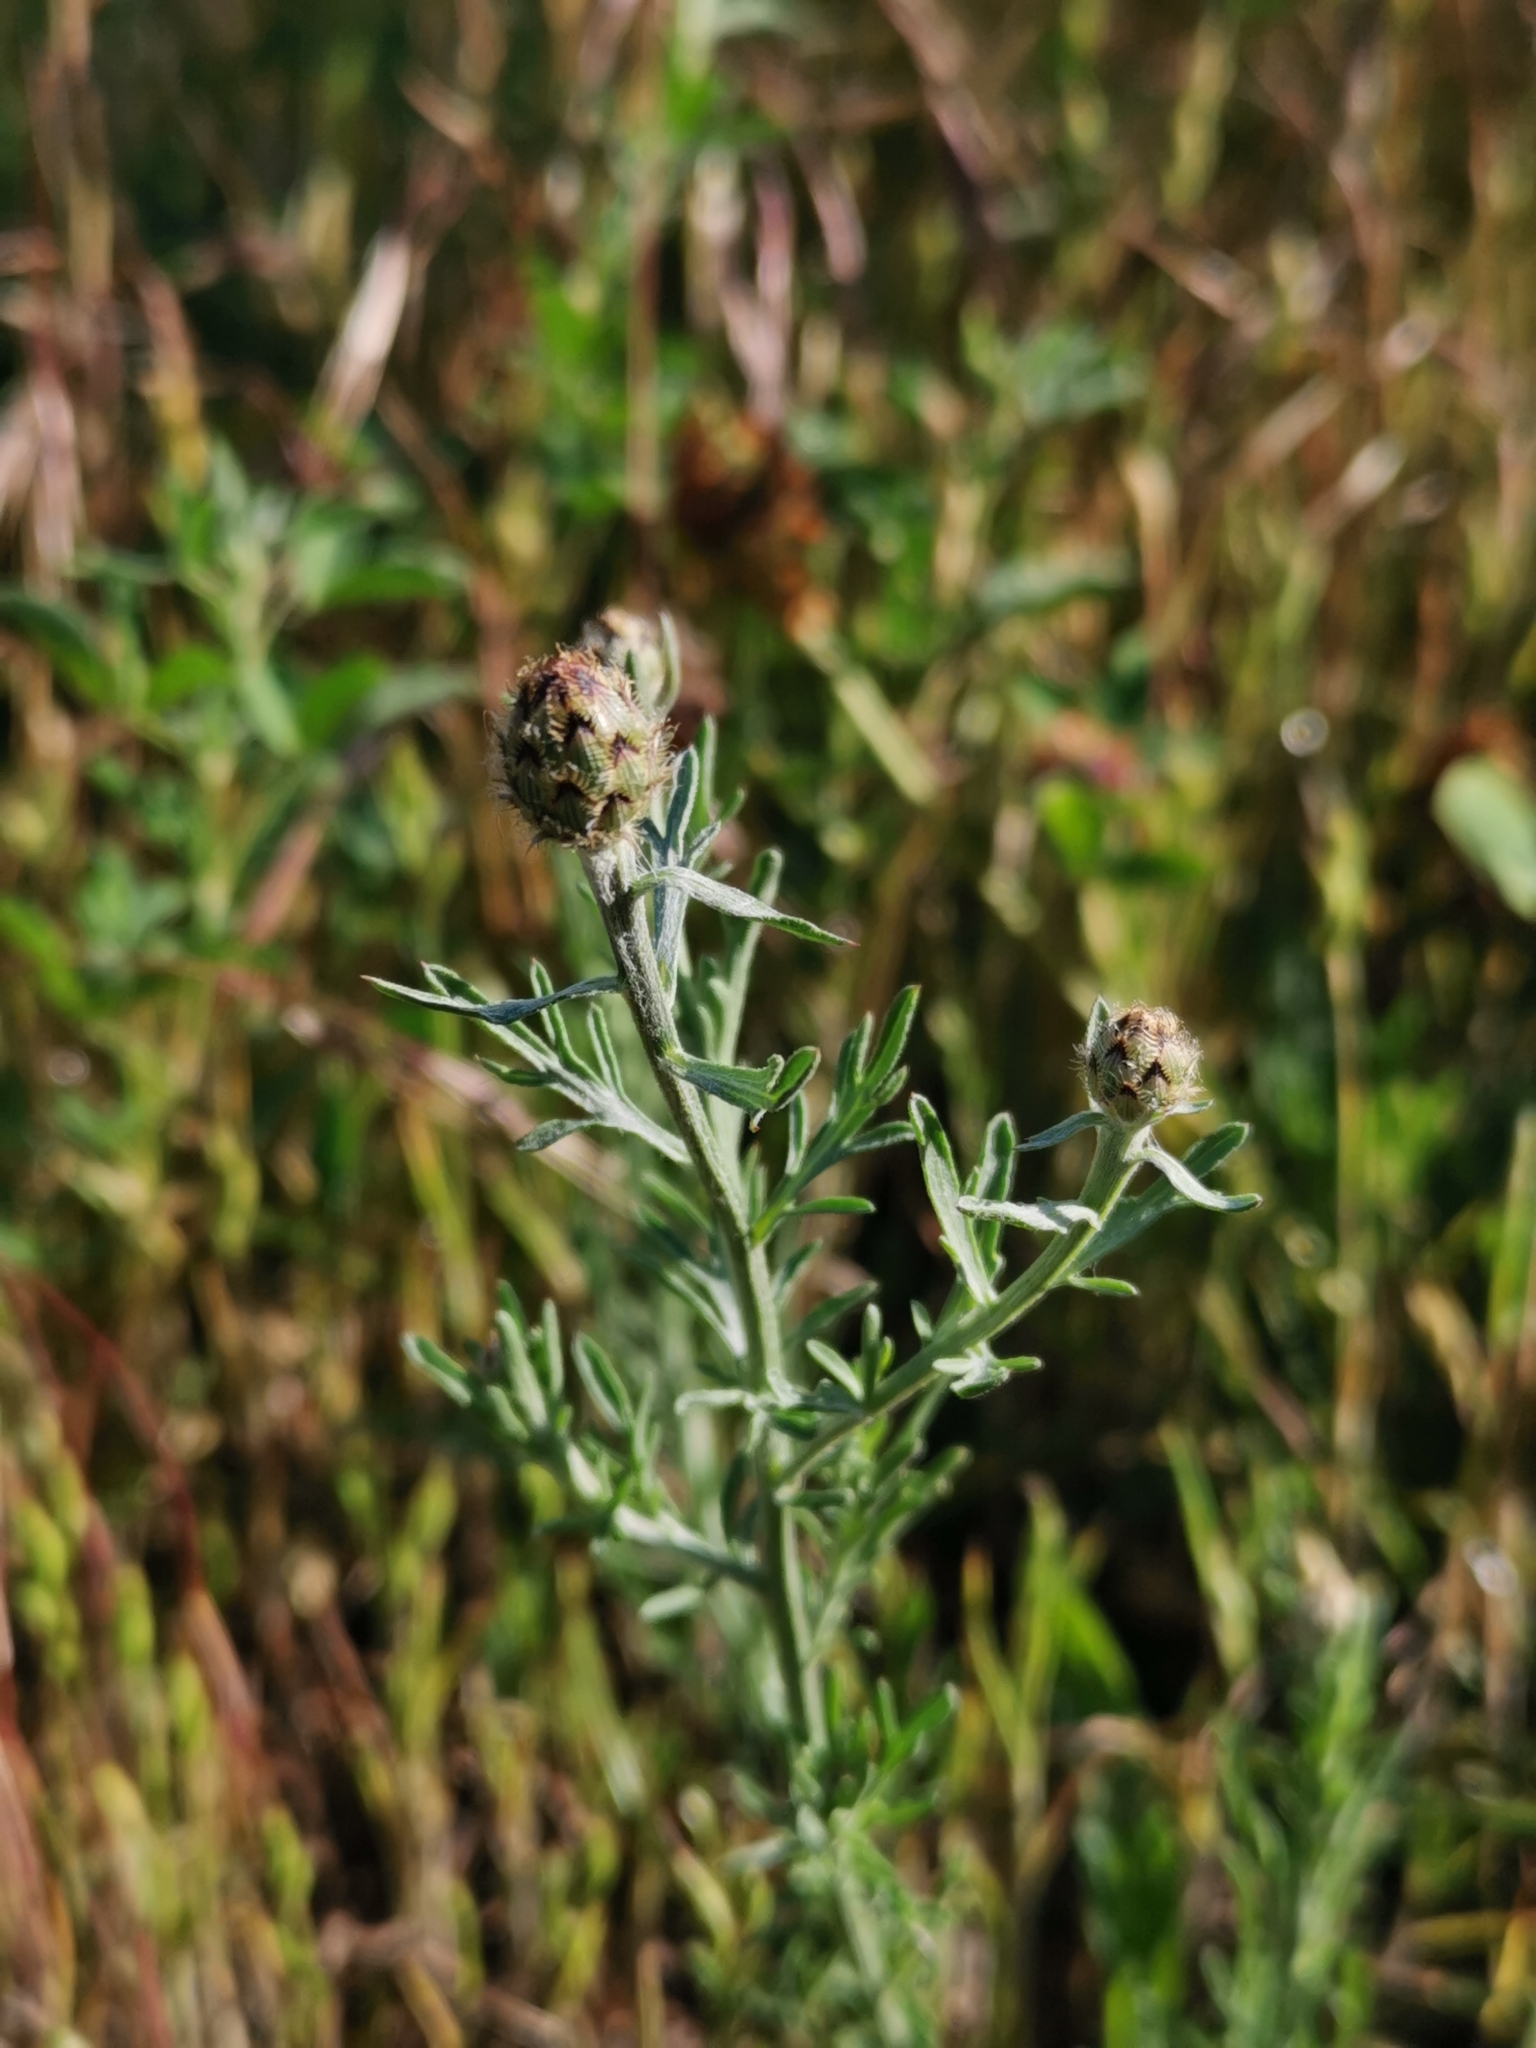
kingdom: Plantae
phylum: Tracheophyta
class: Magnoliopsida
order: Asterales
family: Asteraceae
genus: Centaurea
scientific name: Centaurea stoebe
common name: Spotted knapweed
